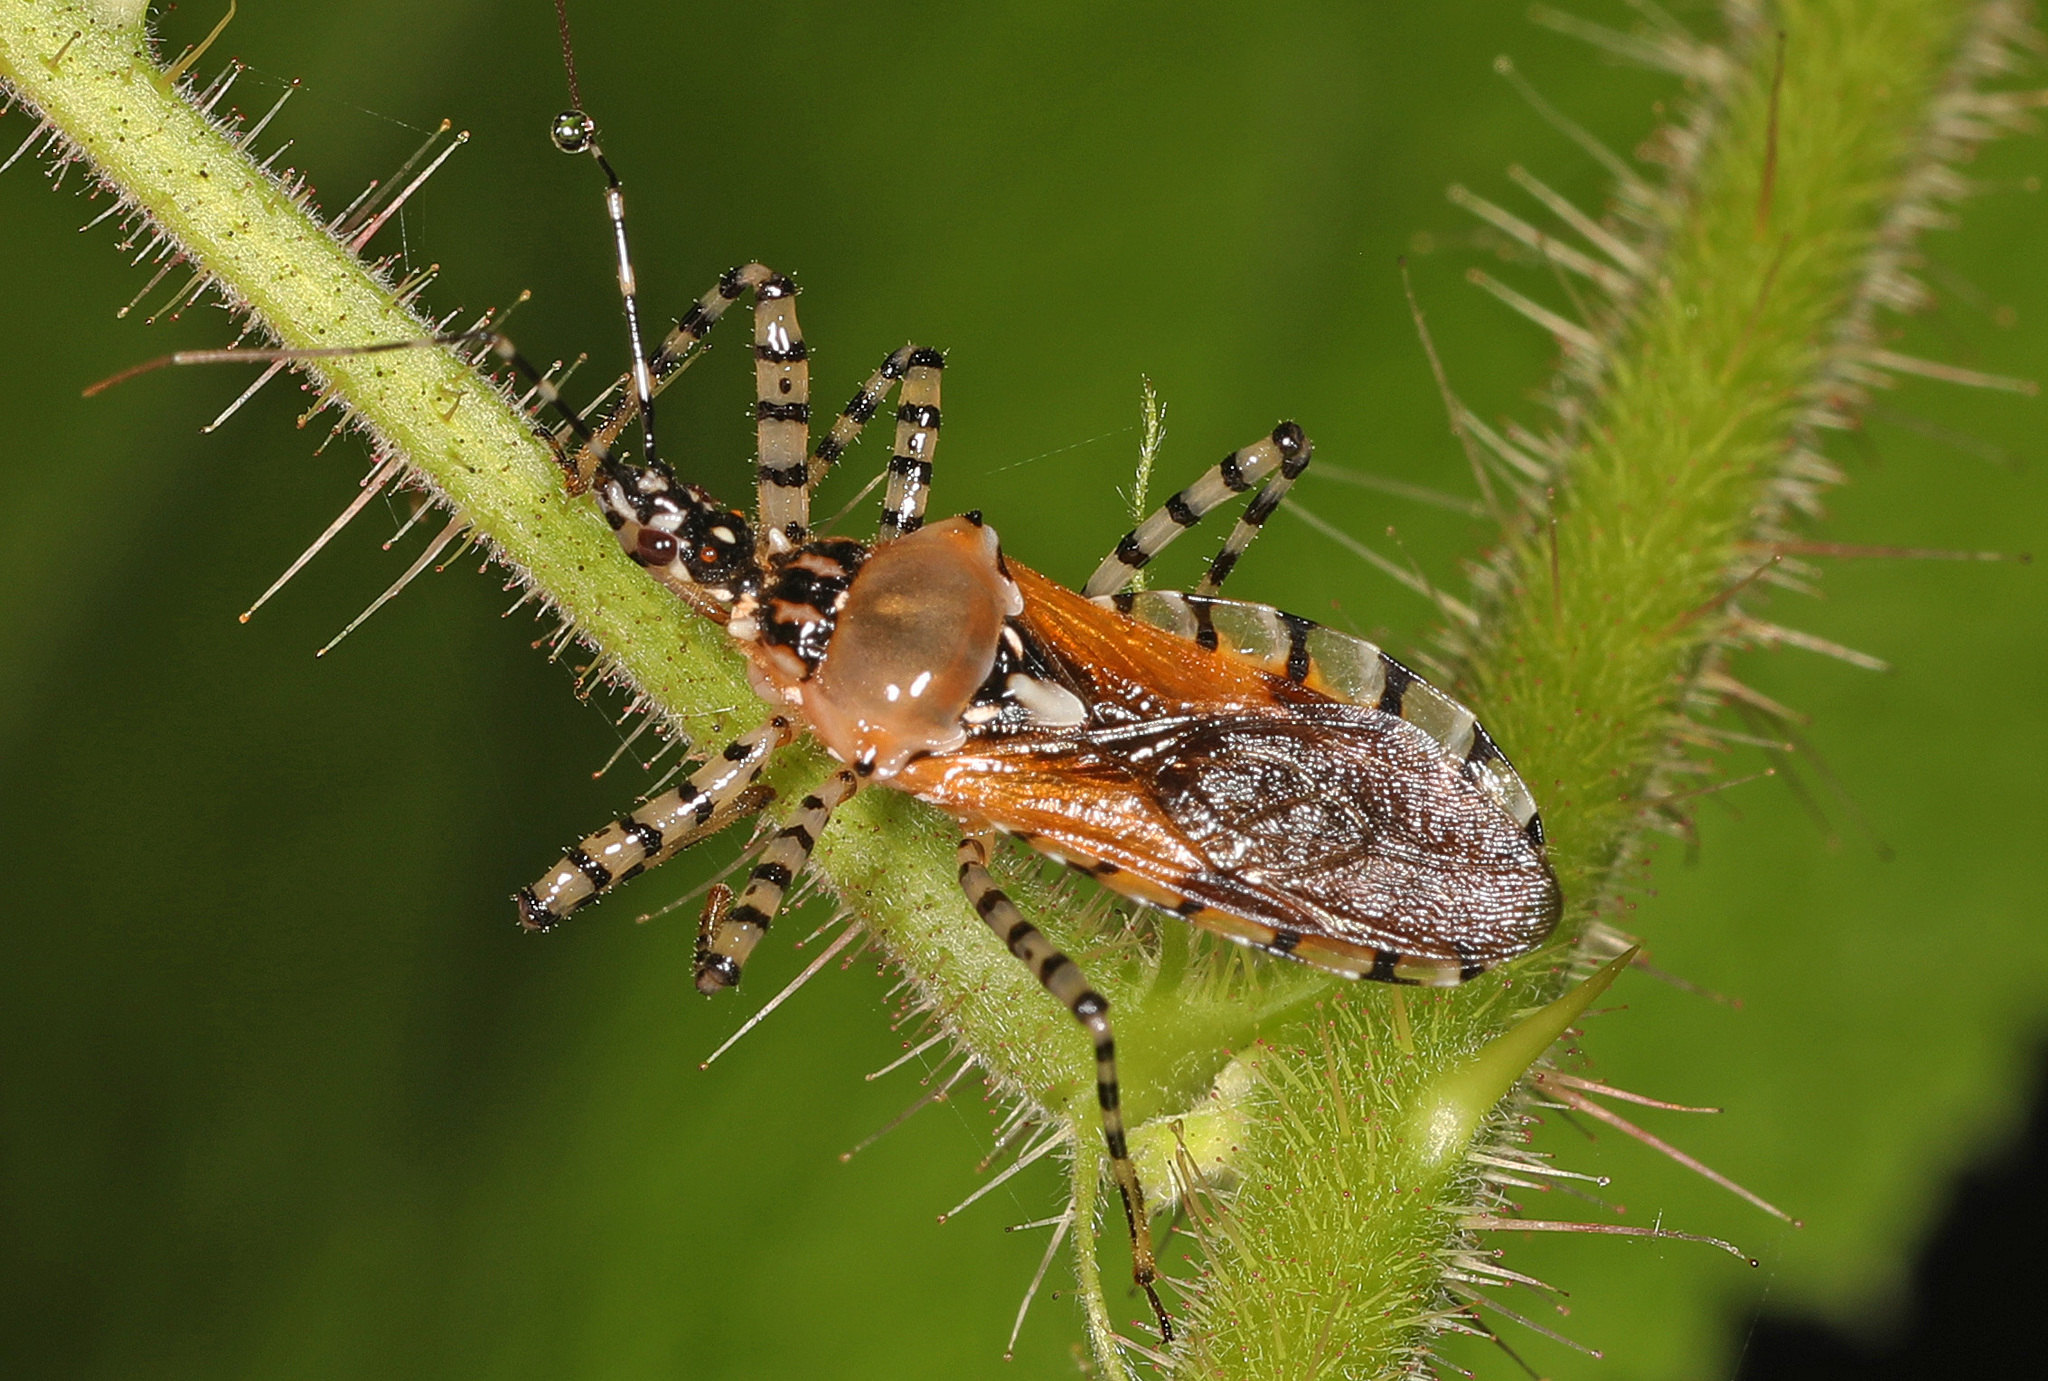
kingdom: Animalia
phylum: Arthropoda
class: Insecta
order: Hemiptera
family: Reduviidae
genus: Pselliopus
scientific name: Pselliopus cinctus
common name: Ringed assassin bug
